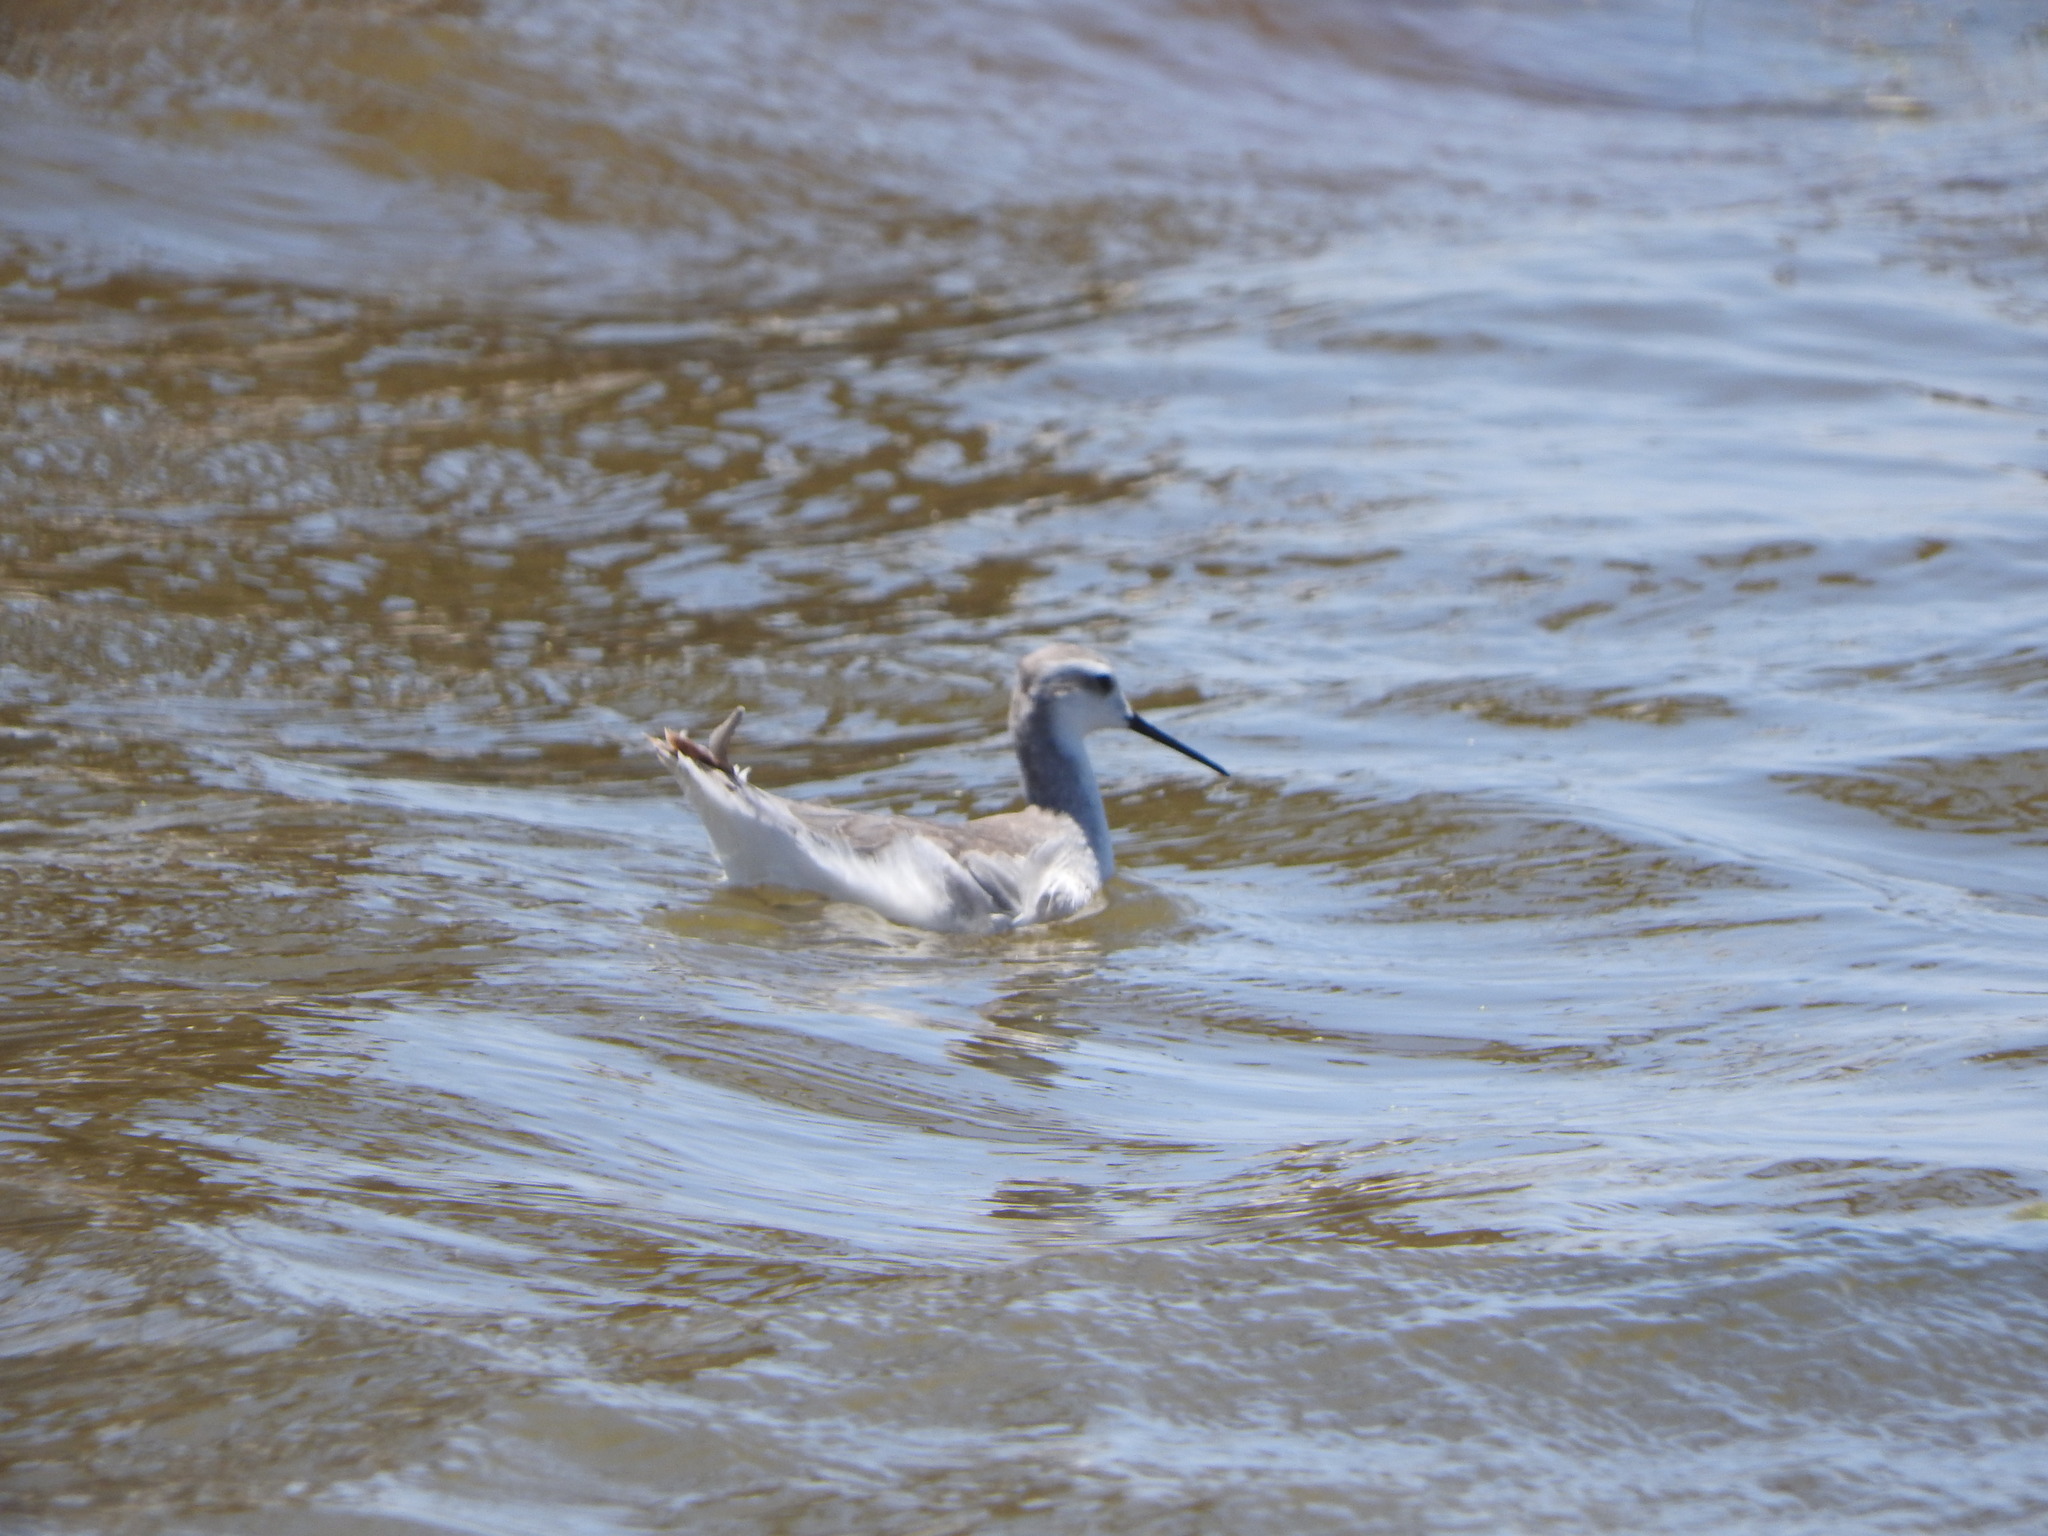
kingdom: Animalia
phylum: Chordata
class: Aves
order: Charadriiformes
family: Scolopacidae
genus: Phalaropus
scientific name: Phalaropus tricolor
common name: Wilson's phalarope
